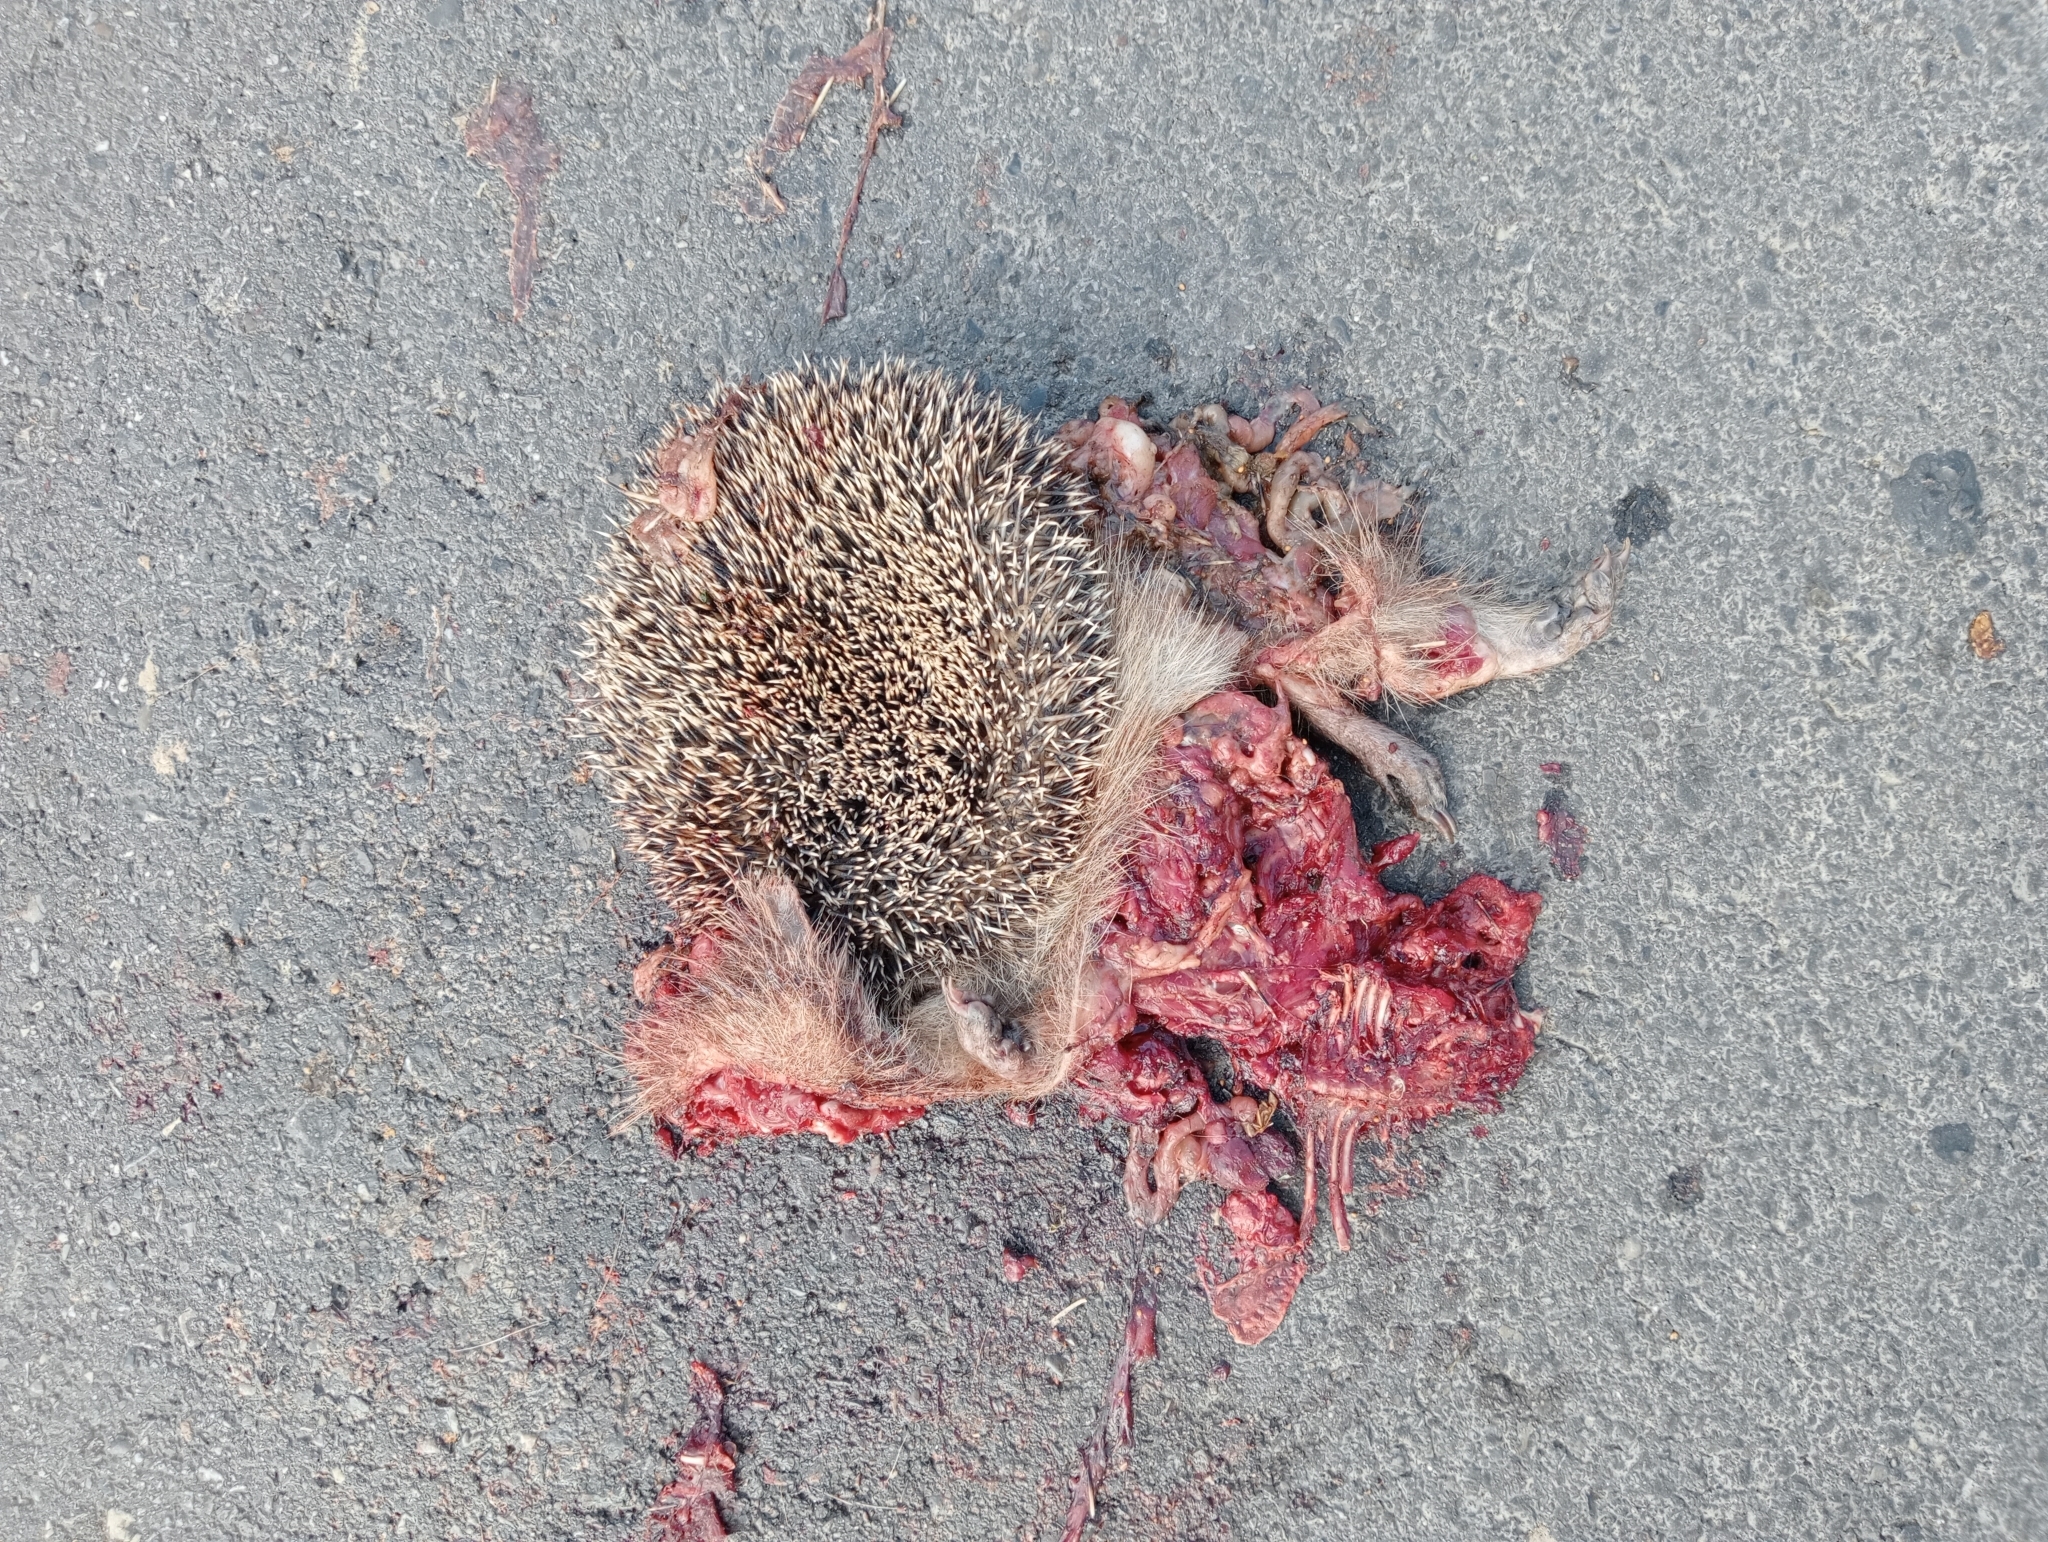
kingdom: Animalia
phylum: Chordata
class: Mammalia
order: Erinaceomorpha
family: Erinaceidae
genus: Erinaceus
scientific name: Erinaceus europaeus
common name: West european hedgehog
